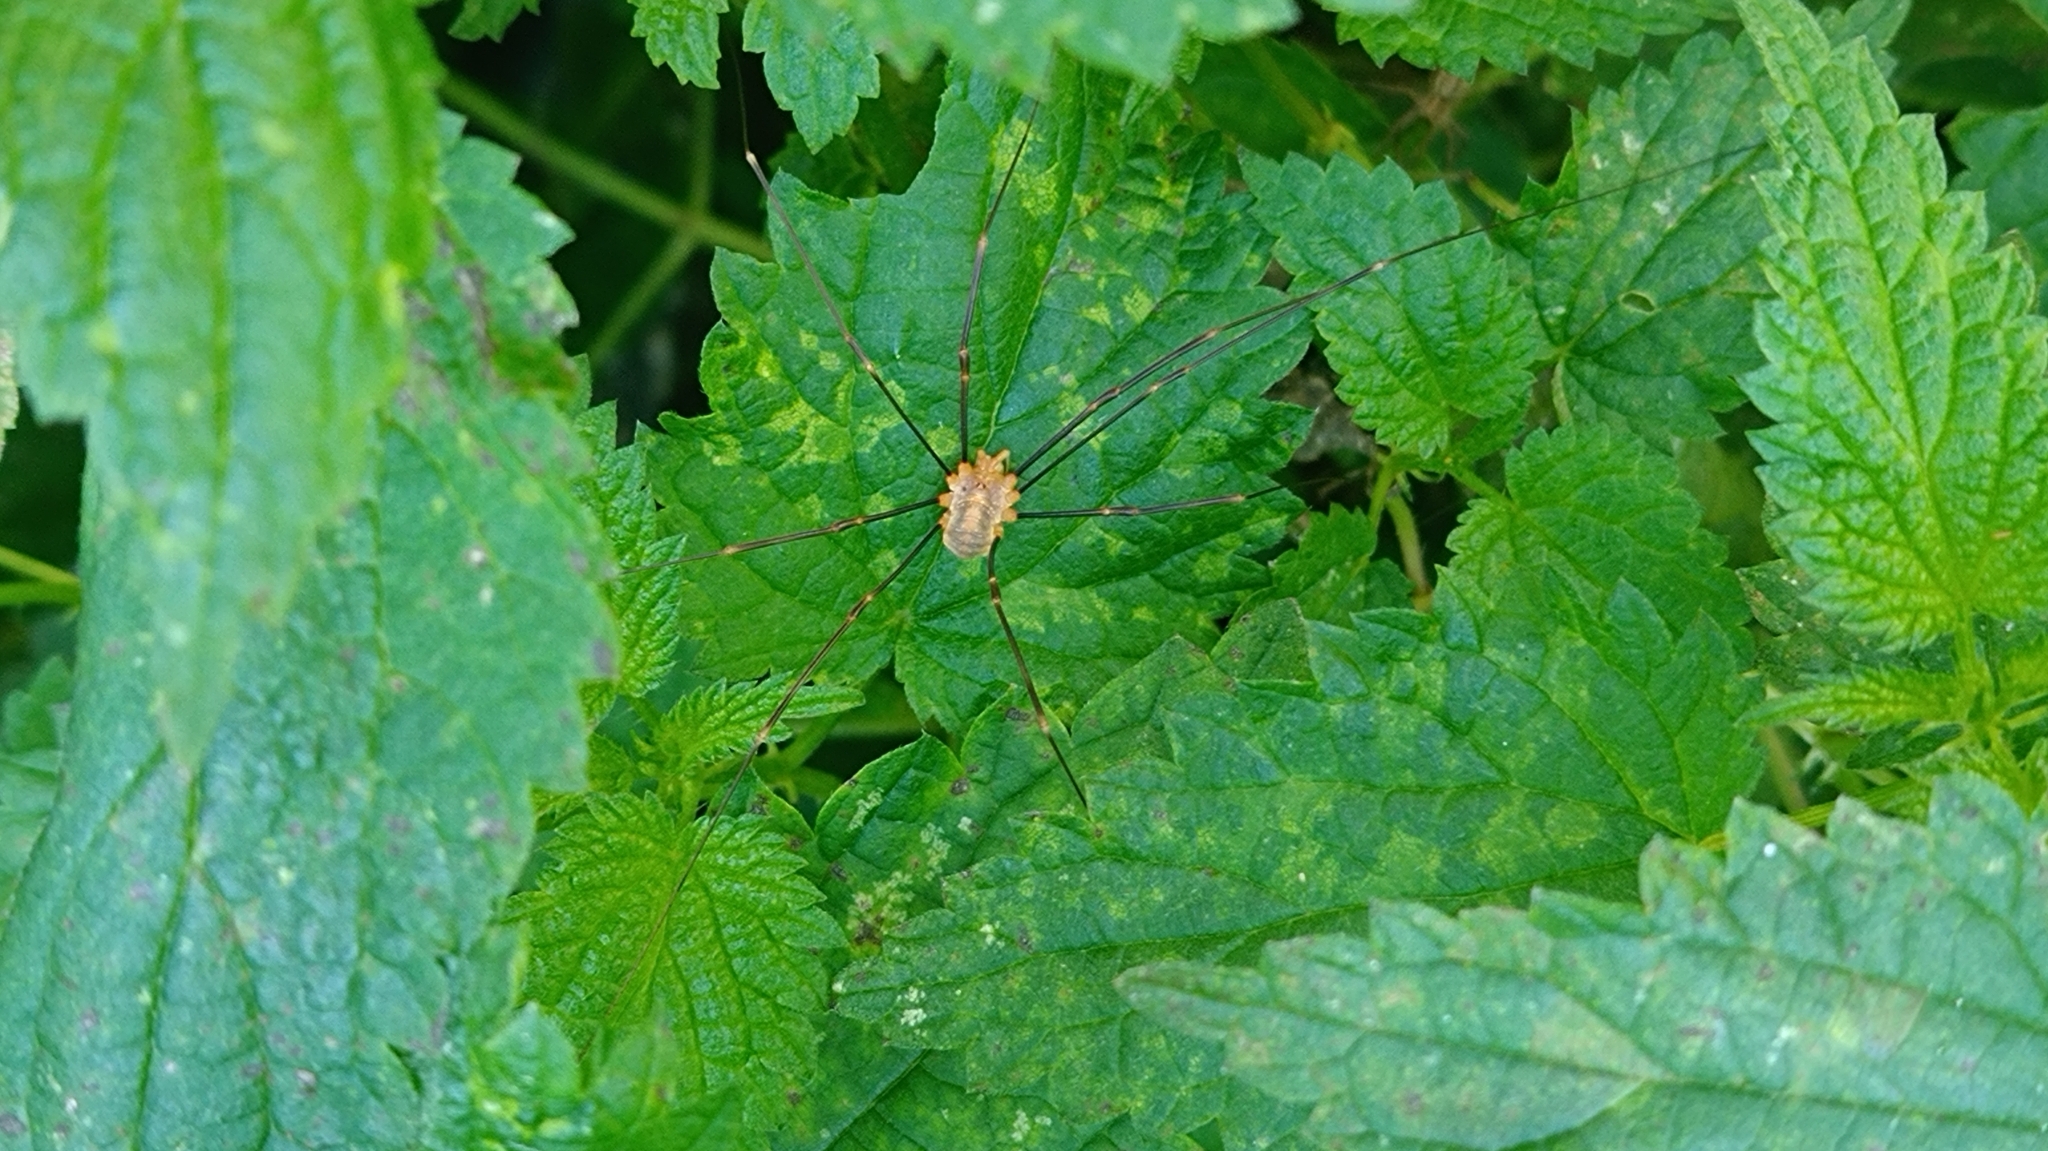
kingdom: Animalia
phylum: Arthropoda
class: Arachnida
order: Opiliones
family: Phalangiidae
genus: Opilio
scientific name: Opilio canestrinii
